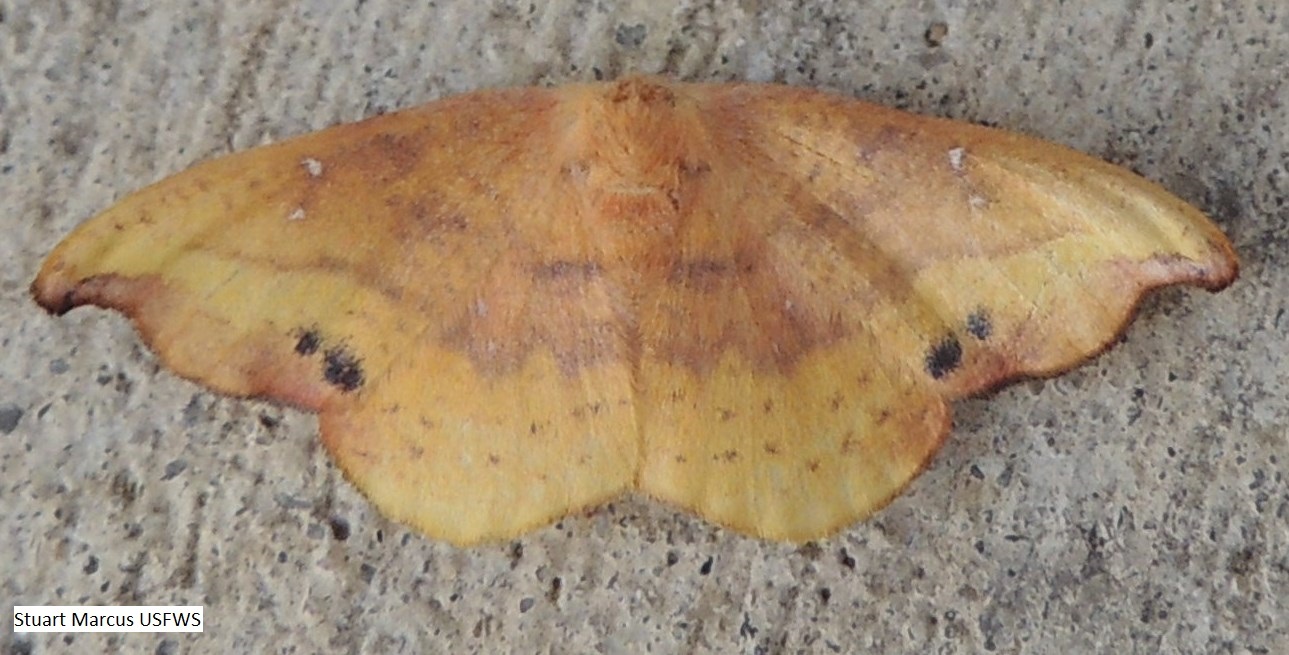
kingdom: Animalia
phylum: Arthropoda
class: Insecta
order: Lepidoptera
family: Drepanidae
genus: Oreta
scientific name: Oreta rosea
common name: Rose hooktip
